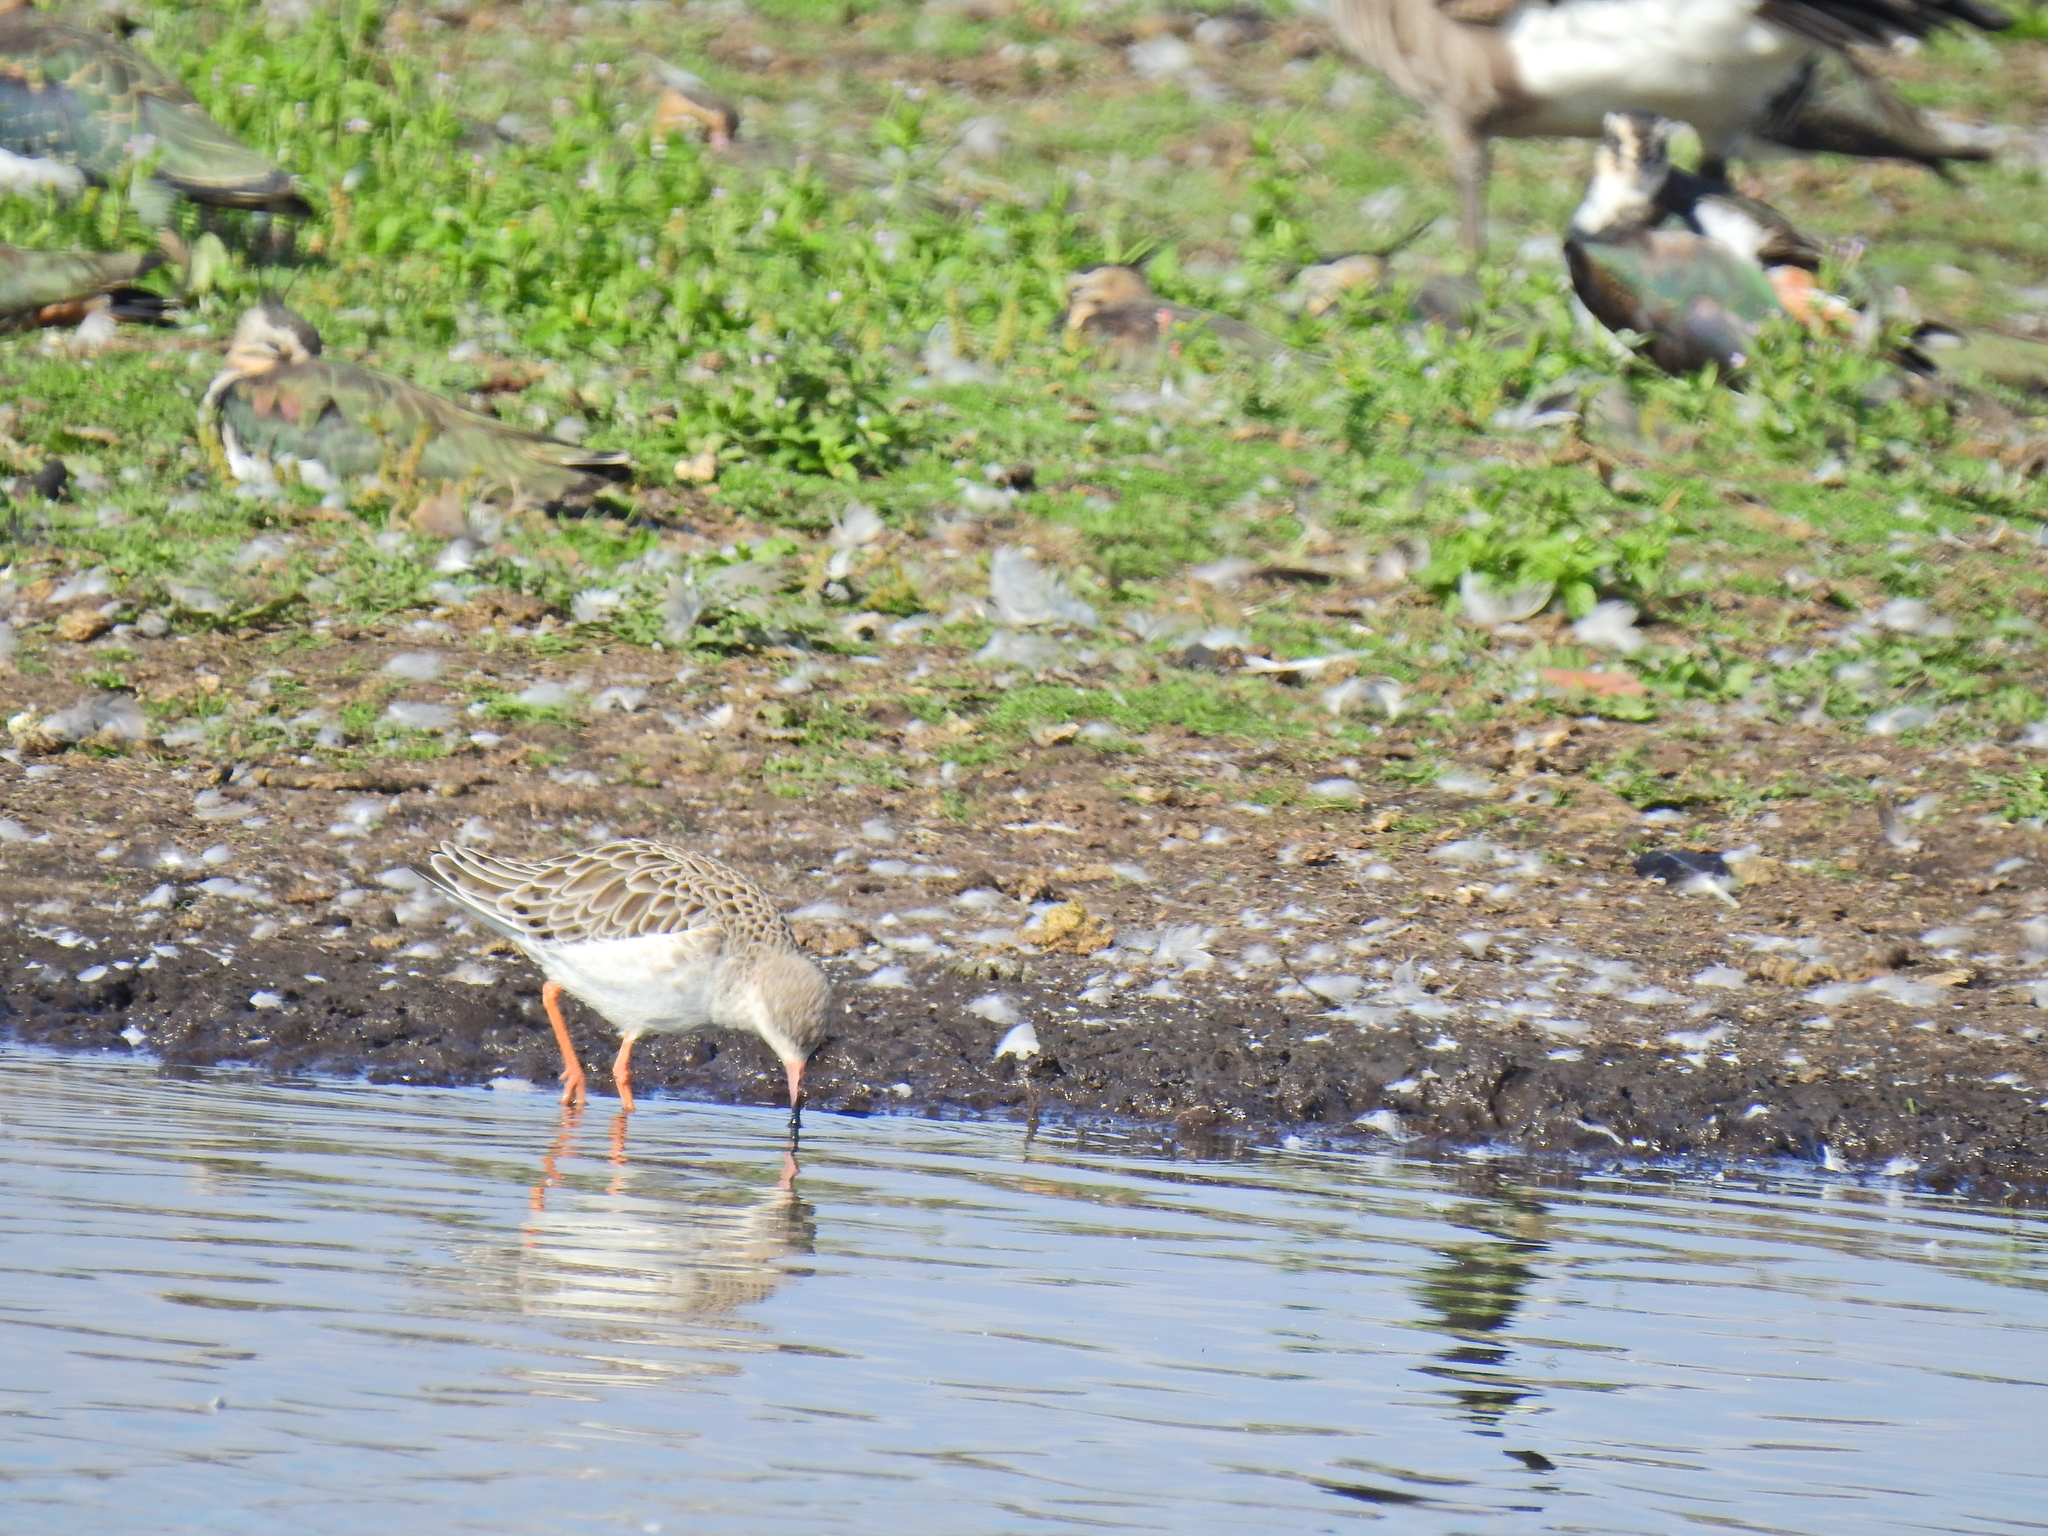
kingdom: Animalia
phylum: Chordata
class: Aves
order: Charadriiformes
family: Scolopacidae
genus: Calidris
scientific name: Calidris pugnax
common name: Ruff
